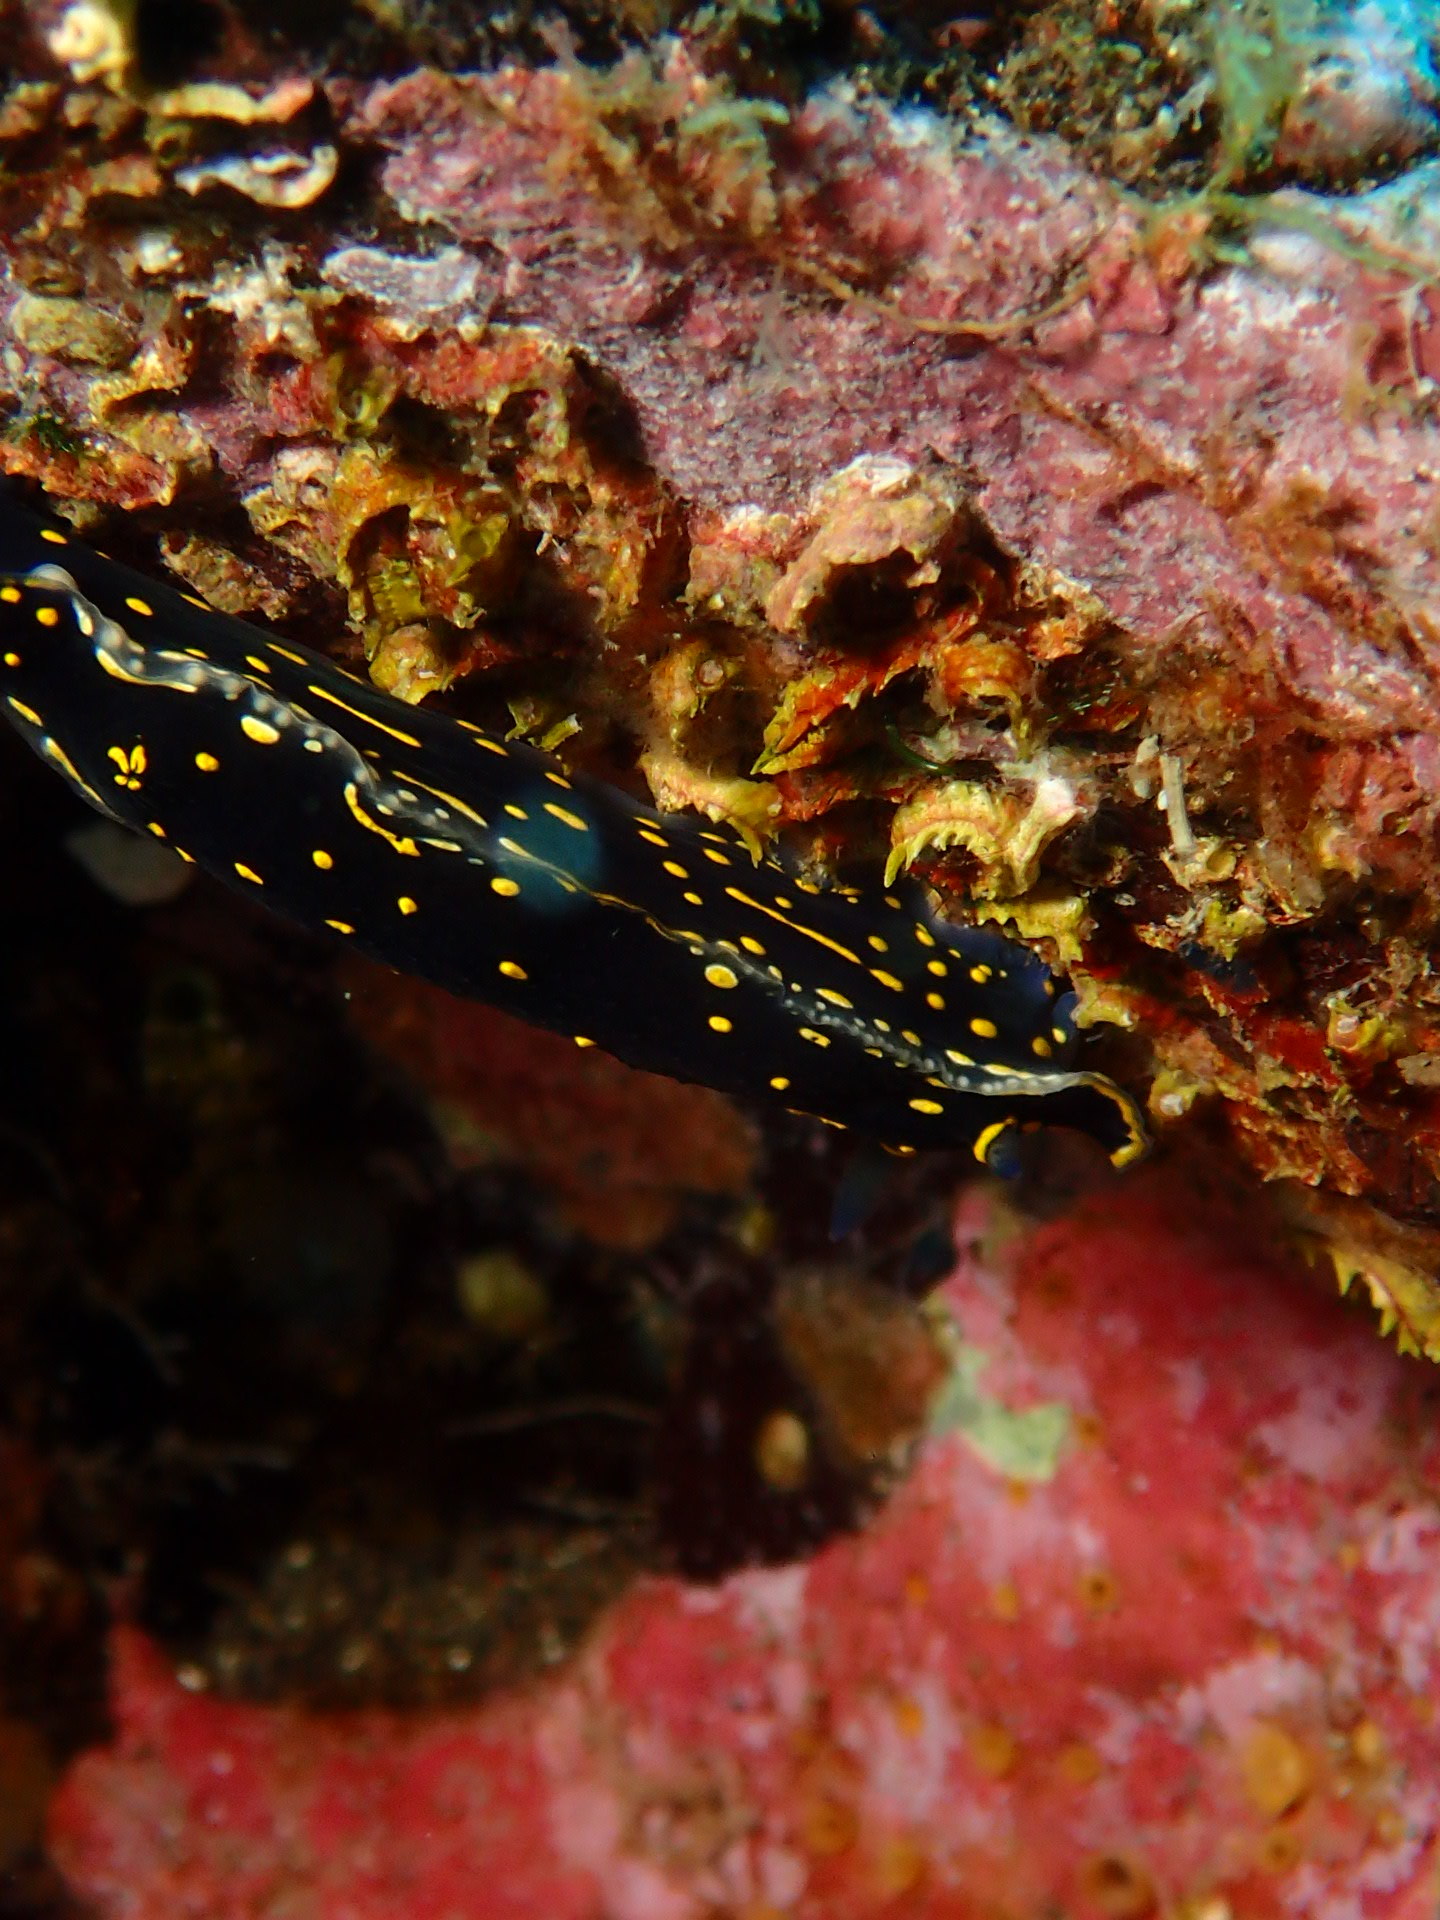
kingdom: Animalia
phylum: Mollusca
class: Gastropoda
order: Nudibranchia
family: Chromodorididae
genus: Felimare
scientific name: Felimare picta
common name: Giant doris
